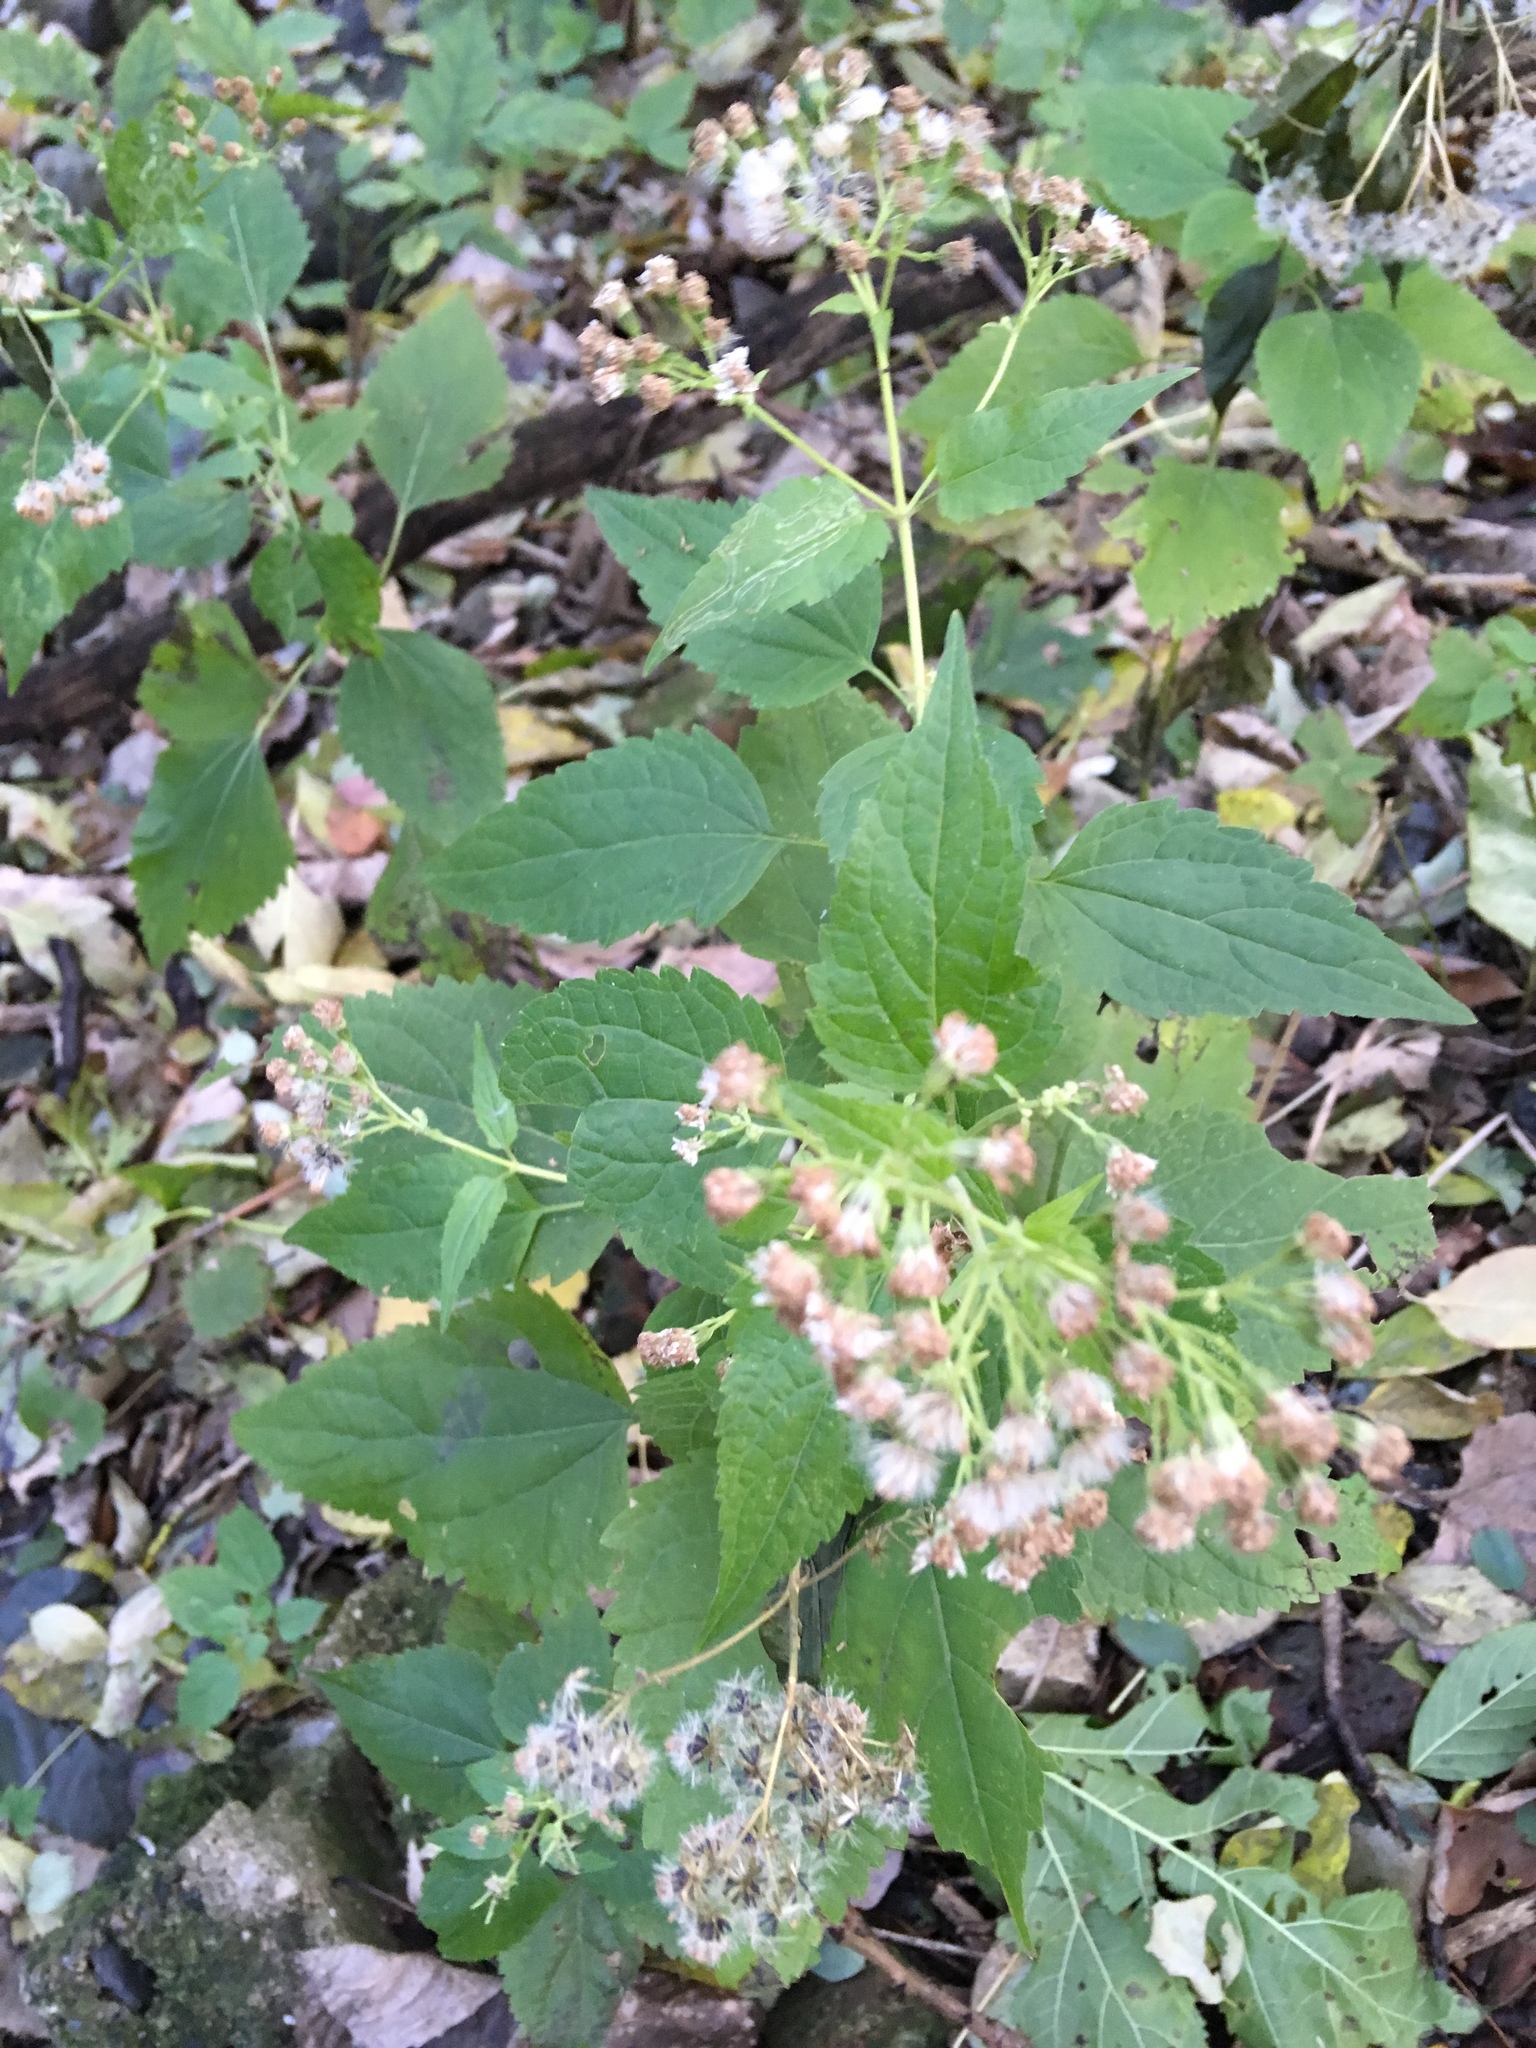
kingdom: Plantae
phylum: Tracheophyta
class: Magnoliopsida
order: Asterales
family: Asteraceae
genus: Ageratina
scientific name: Ageratina altissima
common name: White snakeroot
